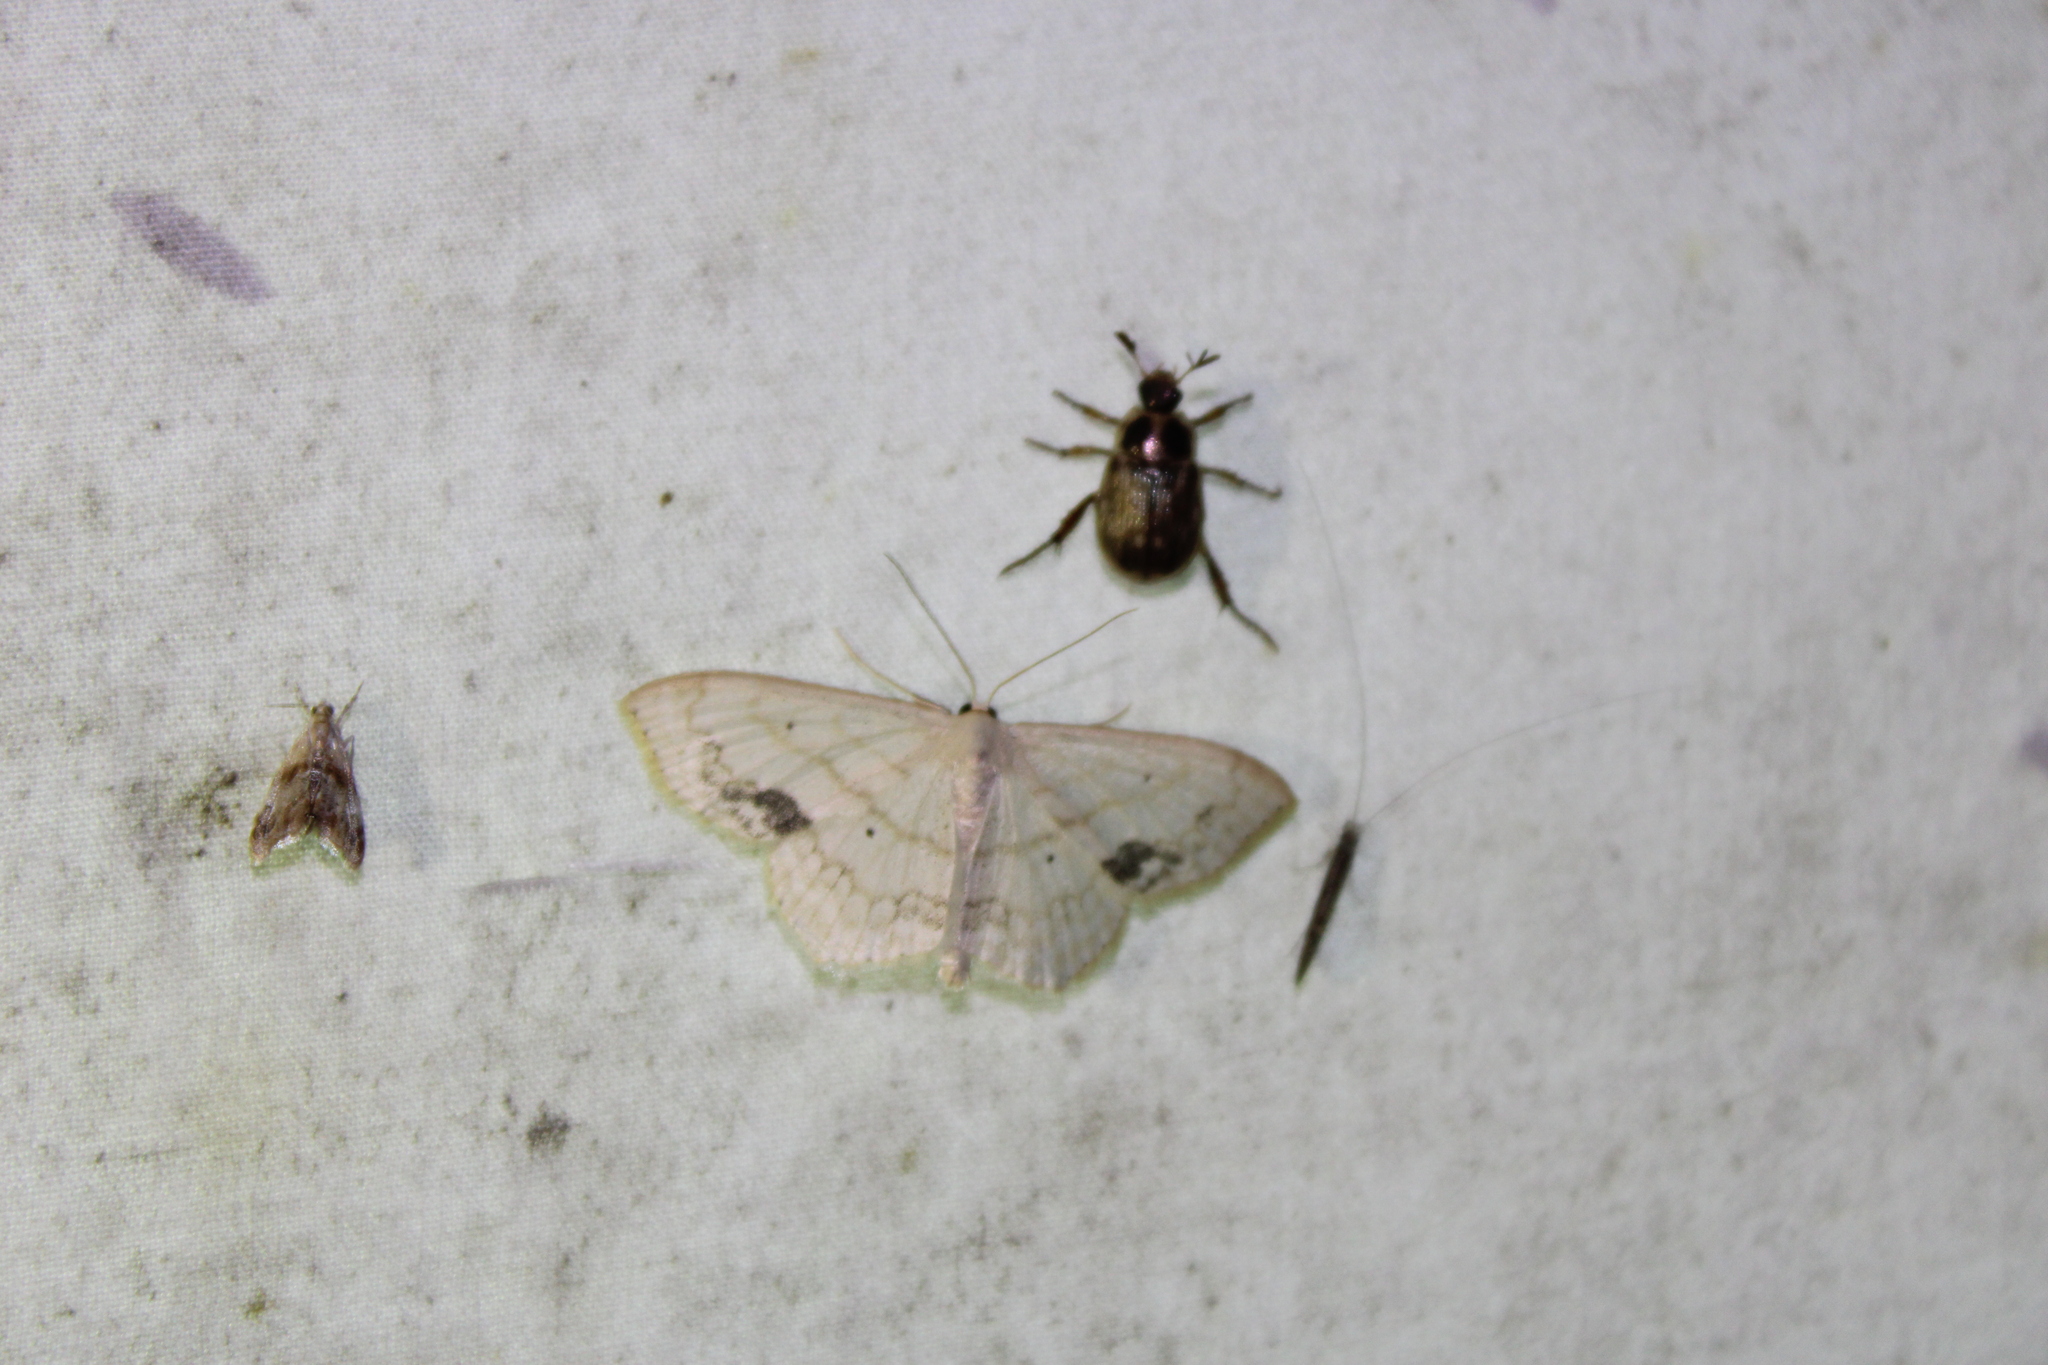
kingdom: Animalia
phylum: Arthropoda
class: Insecta
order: Lepidoptera
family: Geometridae
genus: Scopula
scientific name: Scopula limboundata
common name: Large lace border
